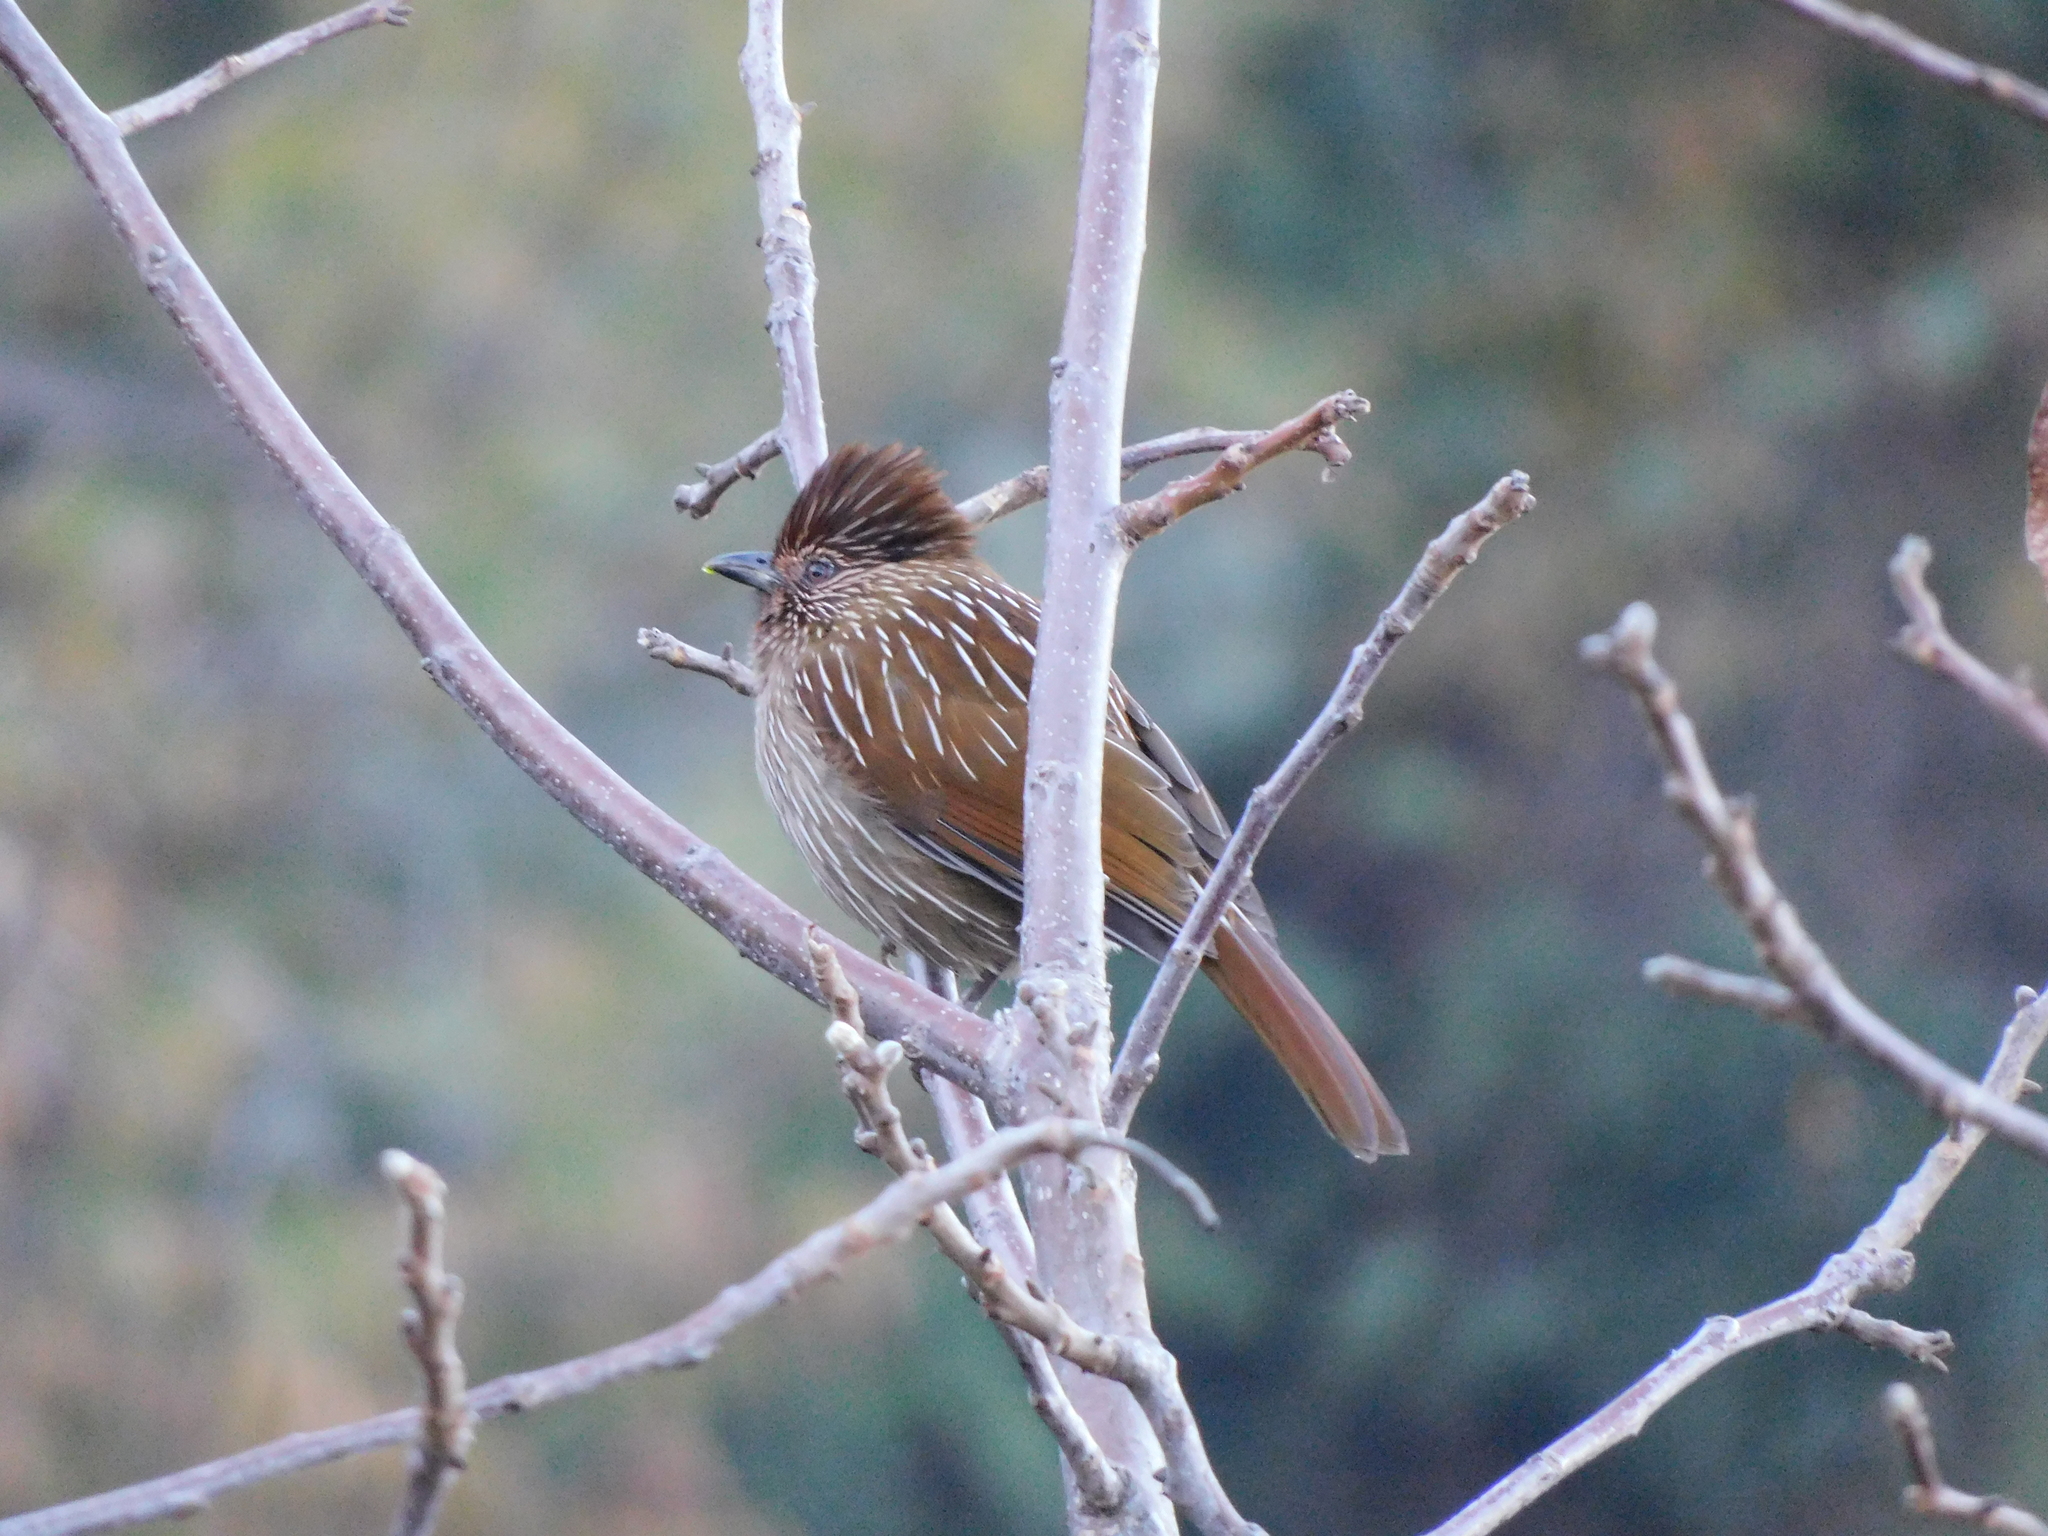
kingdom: Animalia
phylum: Chordata
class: Aves
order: Passeriformes
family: Leiothrichidae
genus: Garrulax
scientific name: Garrulax striatus
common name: Striated laughingthrush
